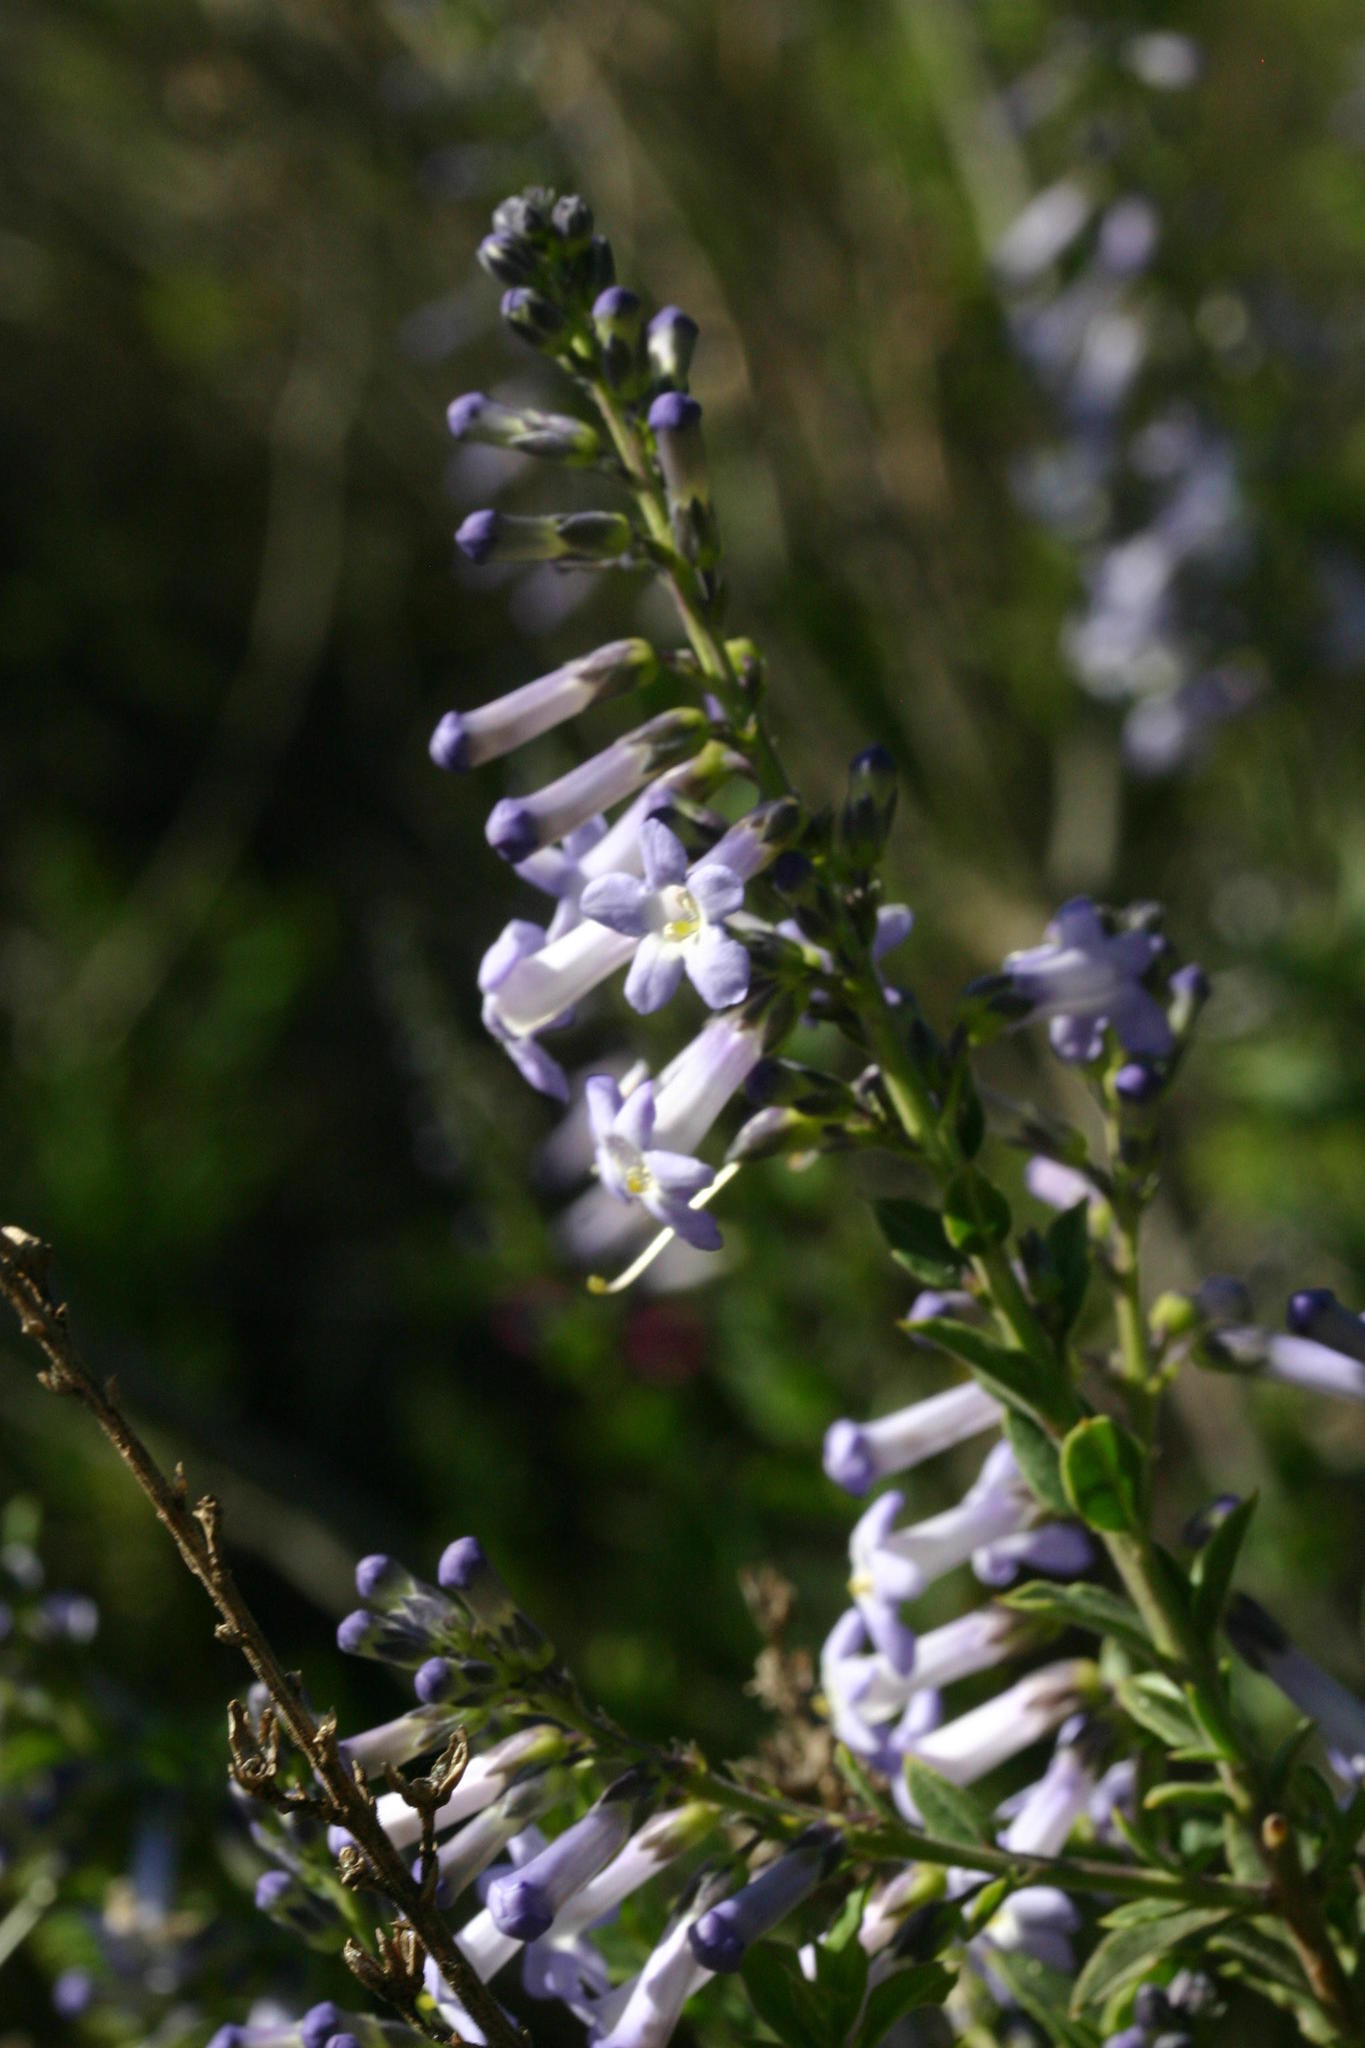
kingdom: Plantae
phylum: Tracheophyta
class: Magnoliopsida
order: Lamiales
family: Scrophulariaceae
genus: Freylinia
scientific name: Freylinia undulata
